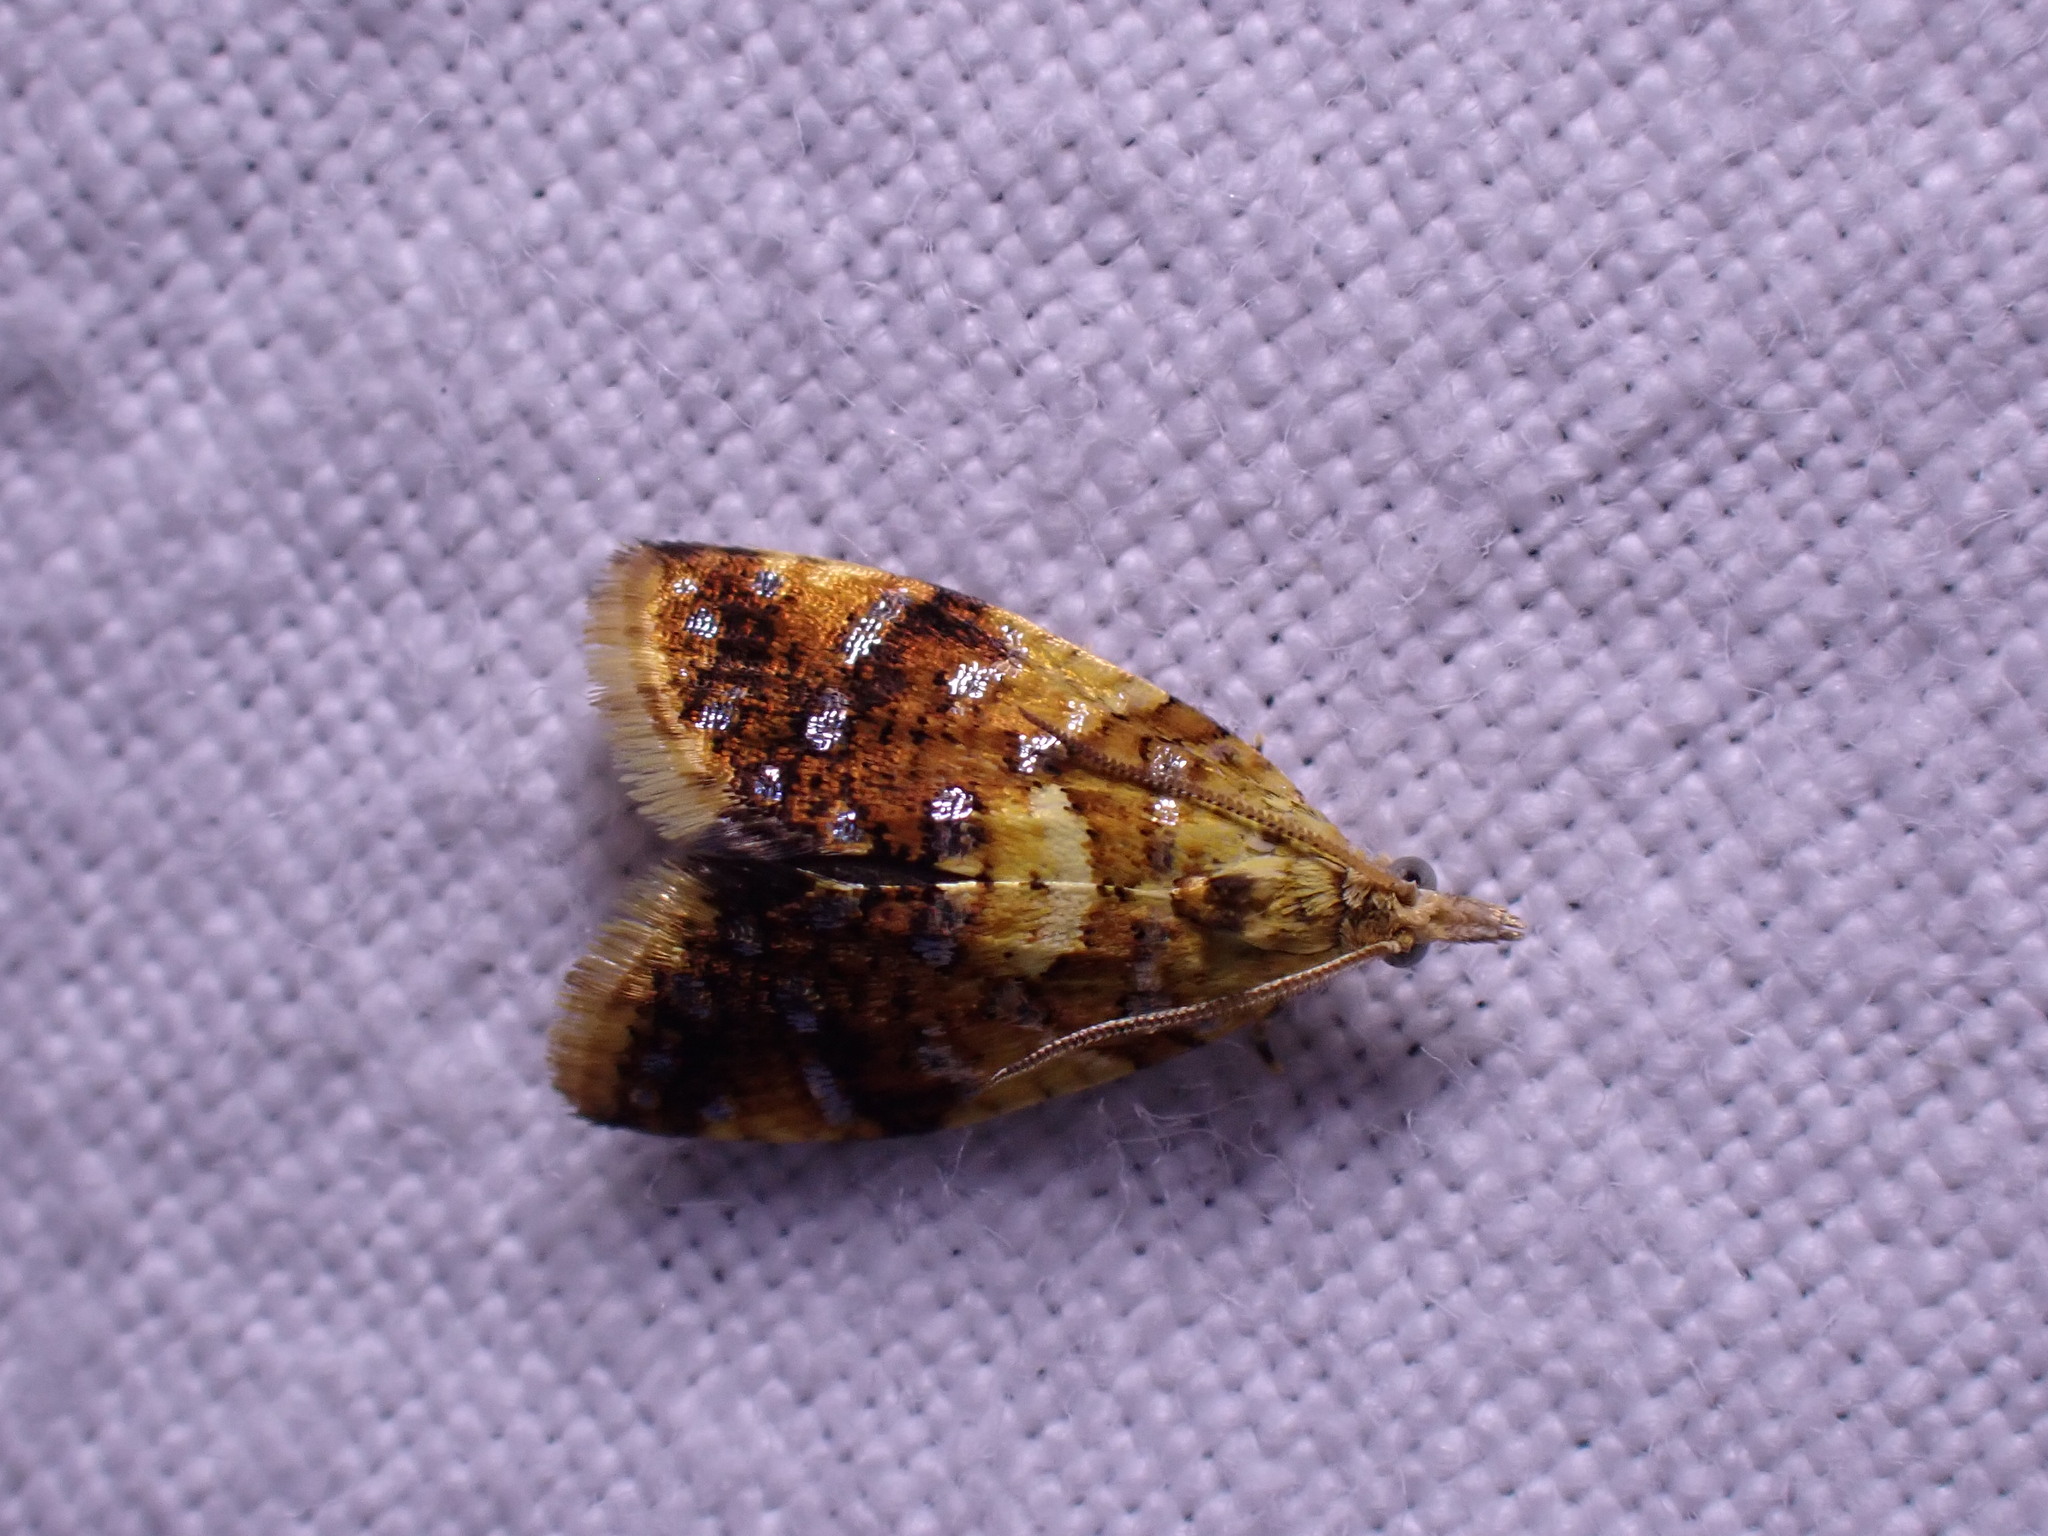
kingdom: Animalia
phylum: Arthropoda
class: Insecta
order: Lepidoptera
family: Tortricidae
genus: Pseudargyrotoza
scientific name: Pseudargyrotoza conwagana
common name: Yellow-spot twist
